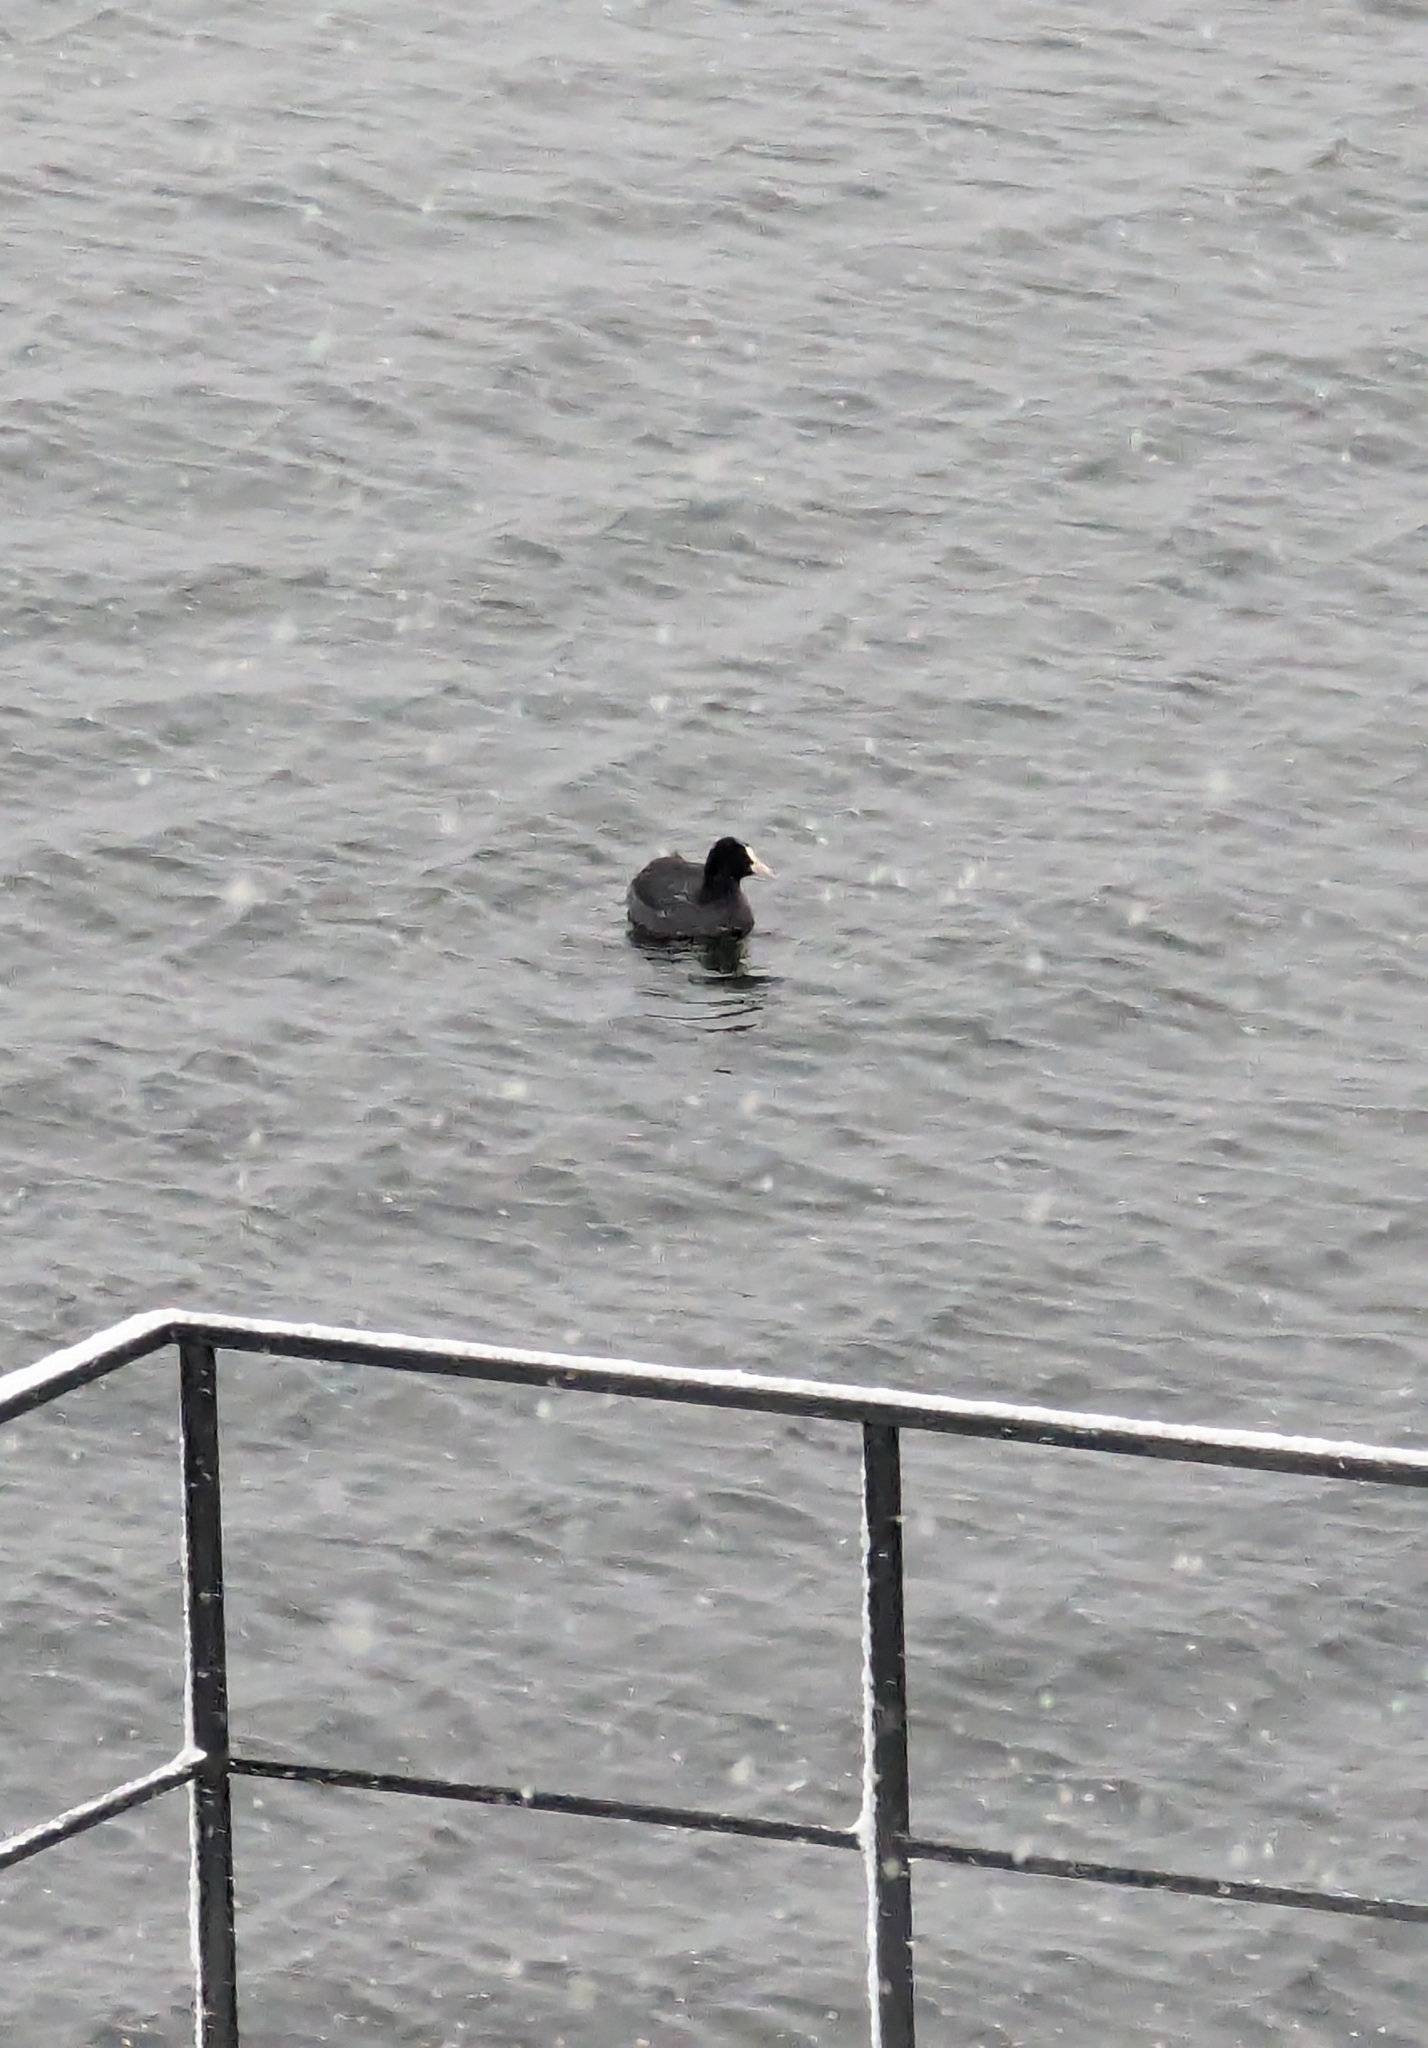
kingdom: Animalia
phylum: Chordata
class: Aves
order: Gruiformes
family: Rallidae
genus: Fulica
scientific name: Fulica atra
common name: Eurasian coot
